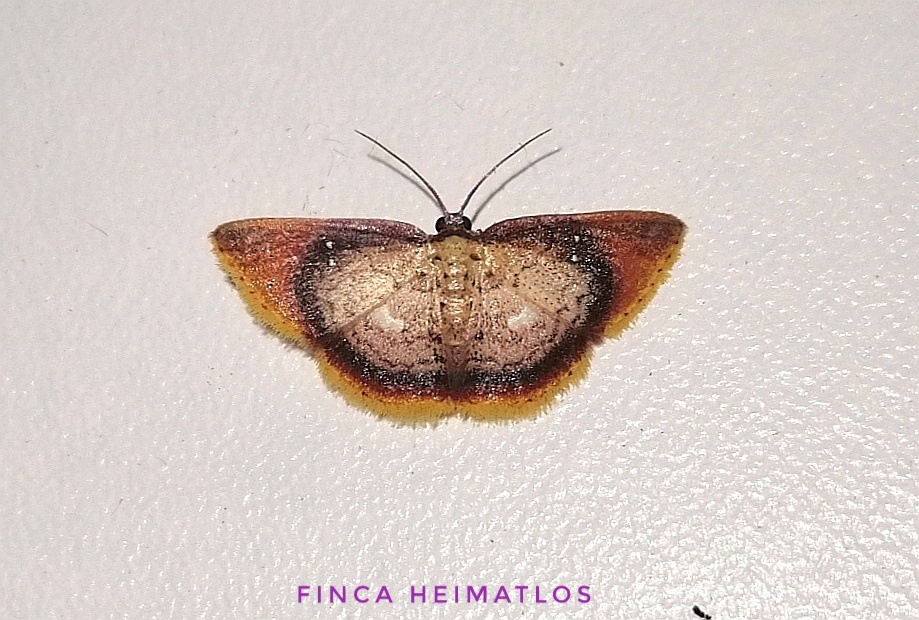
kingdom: Animalia
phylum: Arthropoda
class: Insecta
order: Lepidoptera
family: Geometridae
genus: Tricentra
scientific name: Tricentra albiguttata
